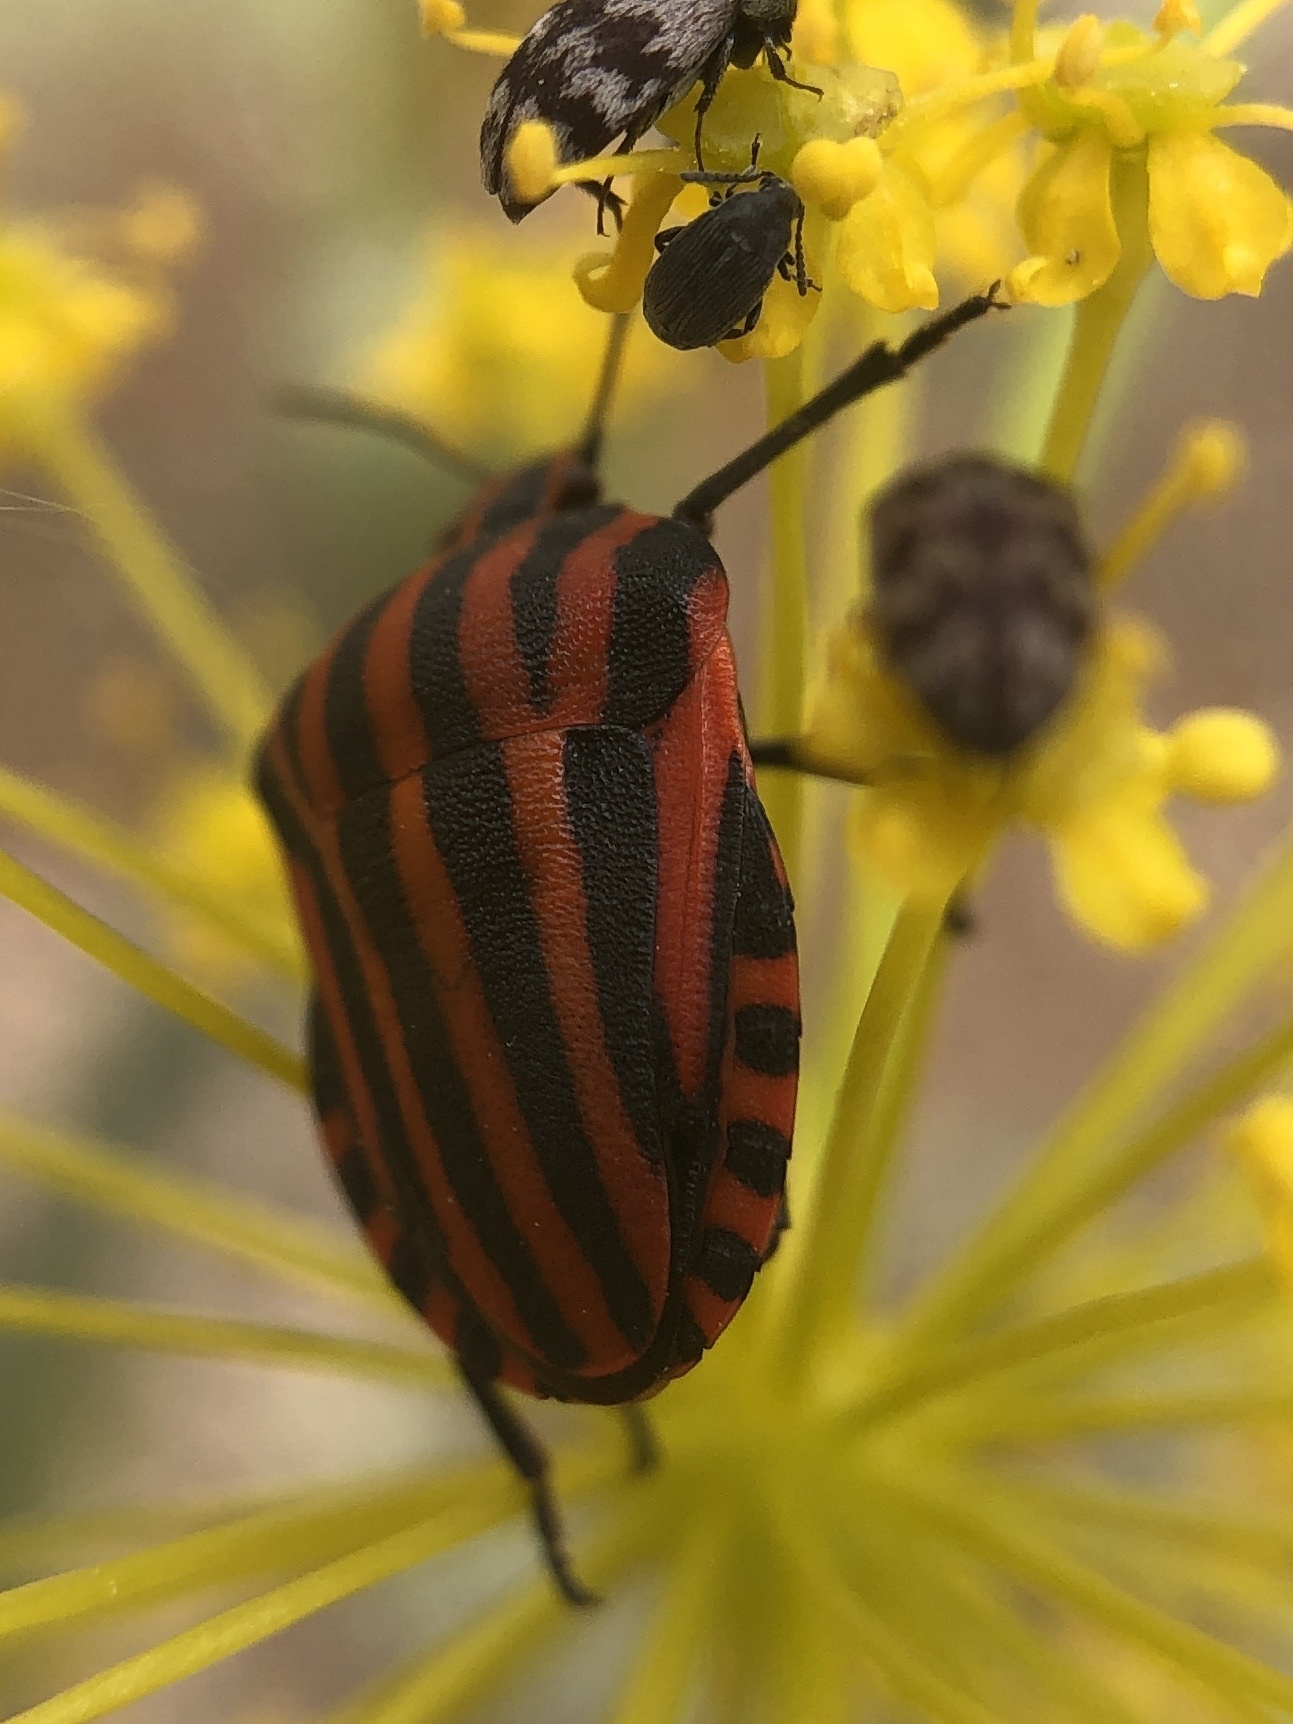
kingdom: Animalia
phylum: Arthropoda
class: Insecta
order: Hemiptera
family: Pentatomidae
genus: Graphosoma
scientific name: Graphosoma italicum
